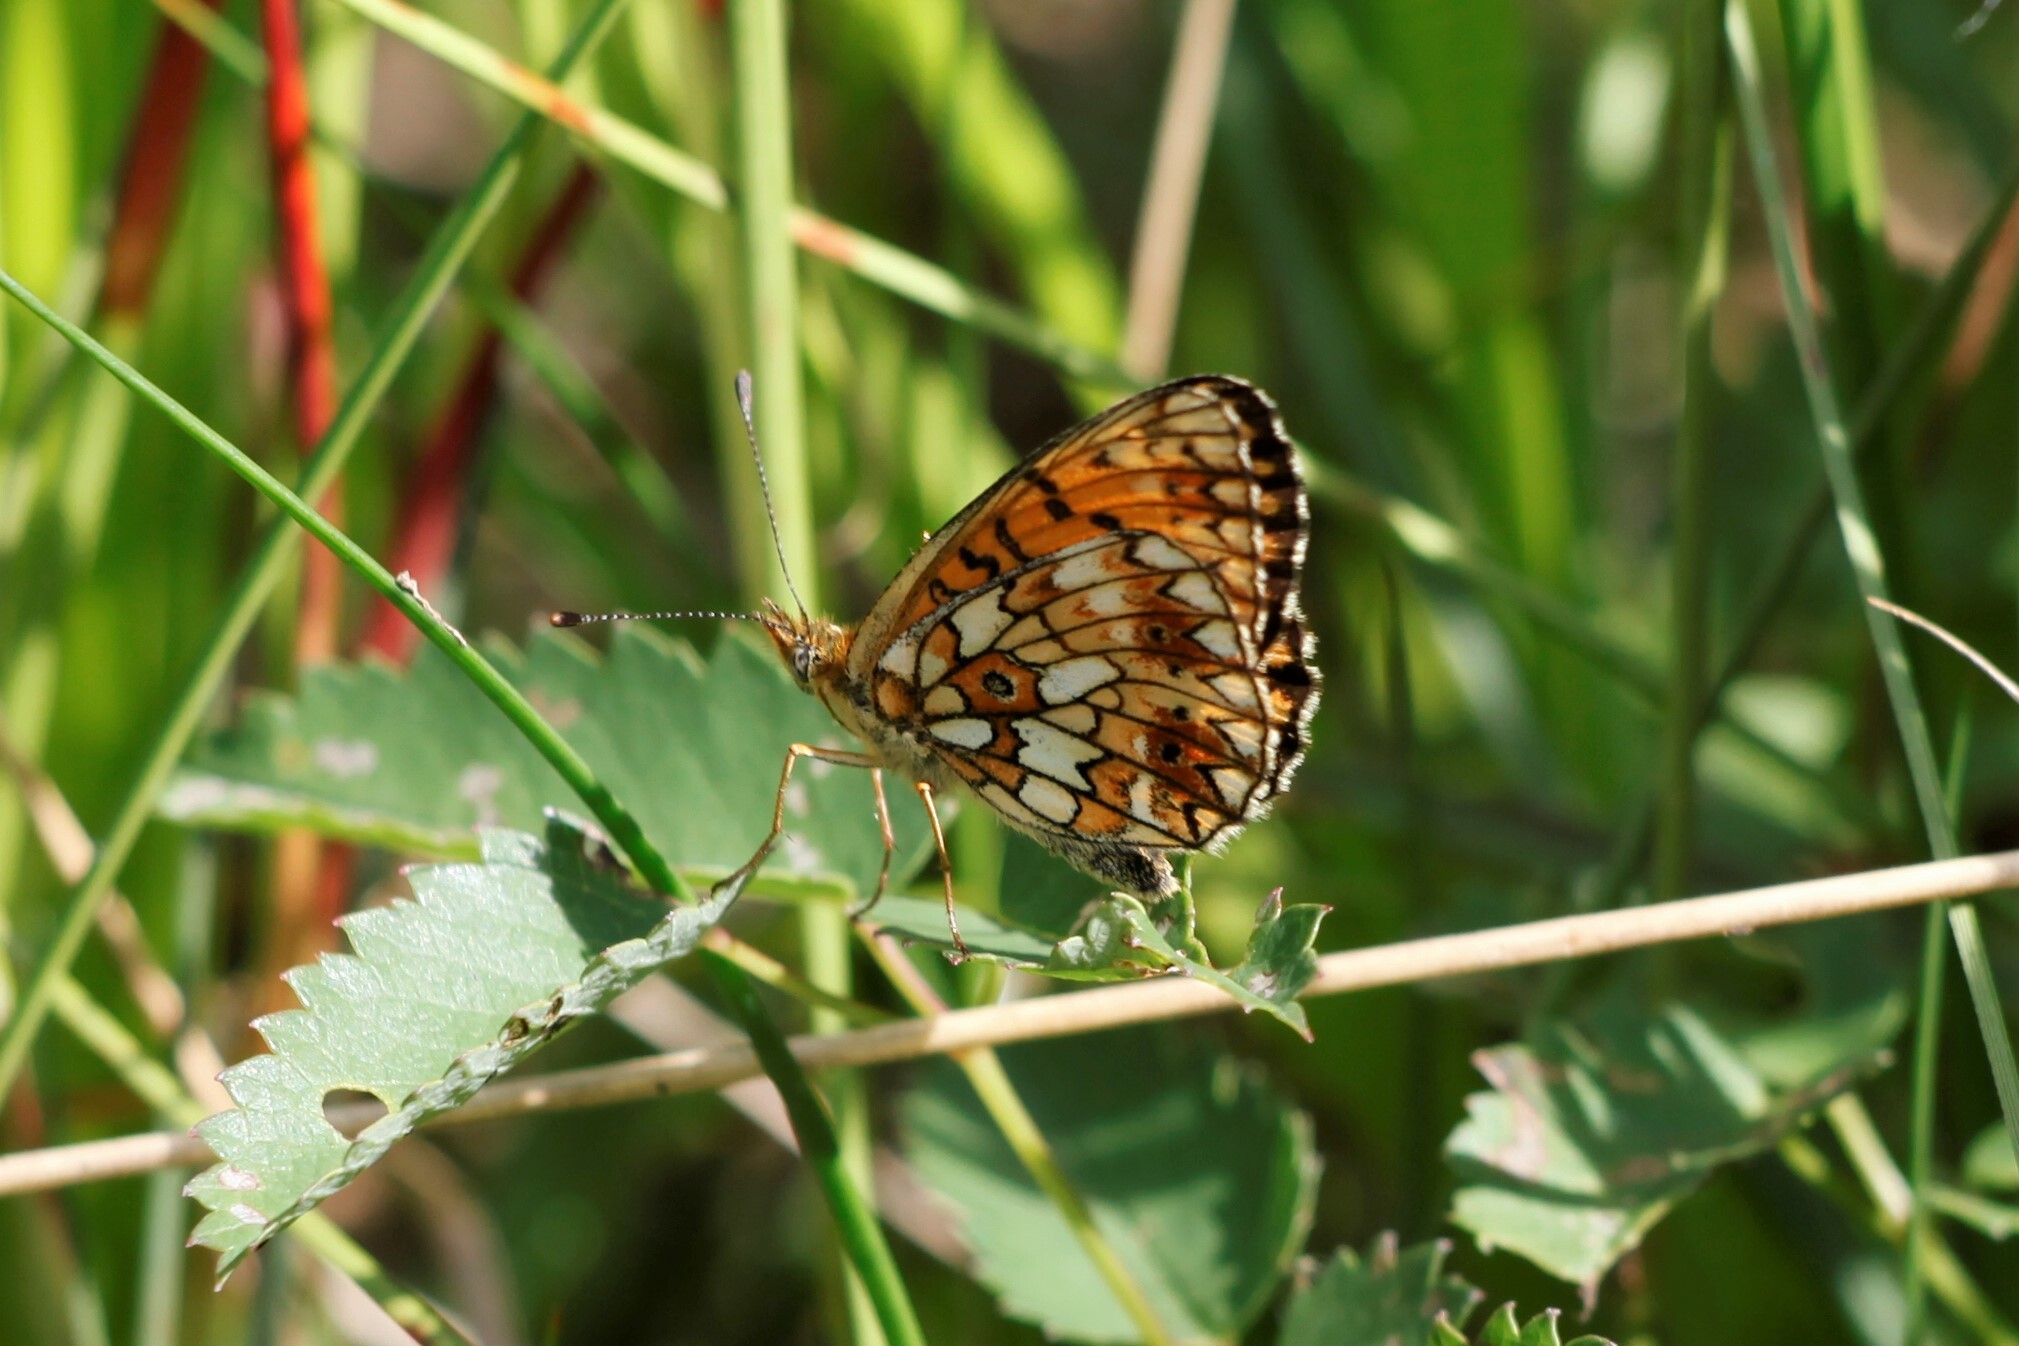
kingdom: Animalia
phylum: Arthropoda
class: Insecta
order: Lepidoptera
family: Nymphalidae
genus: Boloria
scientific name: Boloria selene
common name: Small pearl-bordered fritillary
